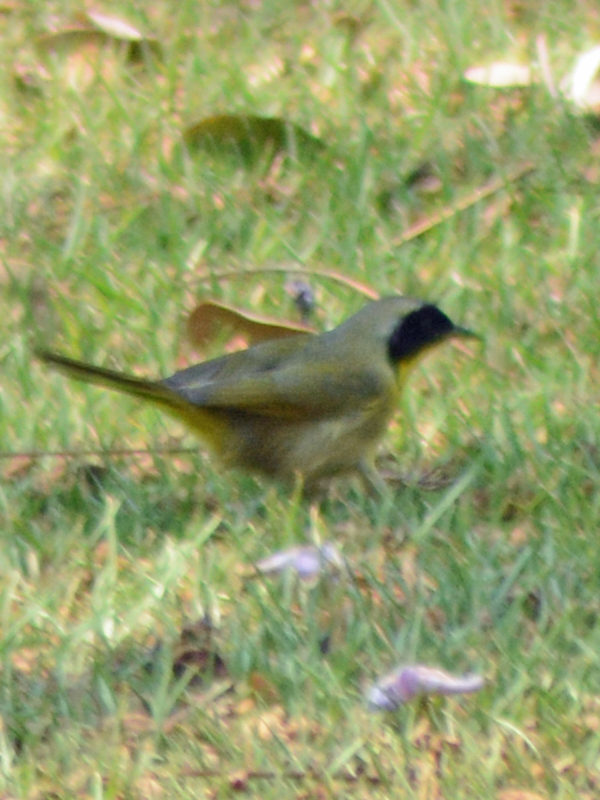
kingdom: Animalia
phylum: Chordata
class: Aves
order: Passeriformes
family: Parulidae
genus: Geothlypis
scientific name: Geothlypis trichas
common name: Common yellowthroat
